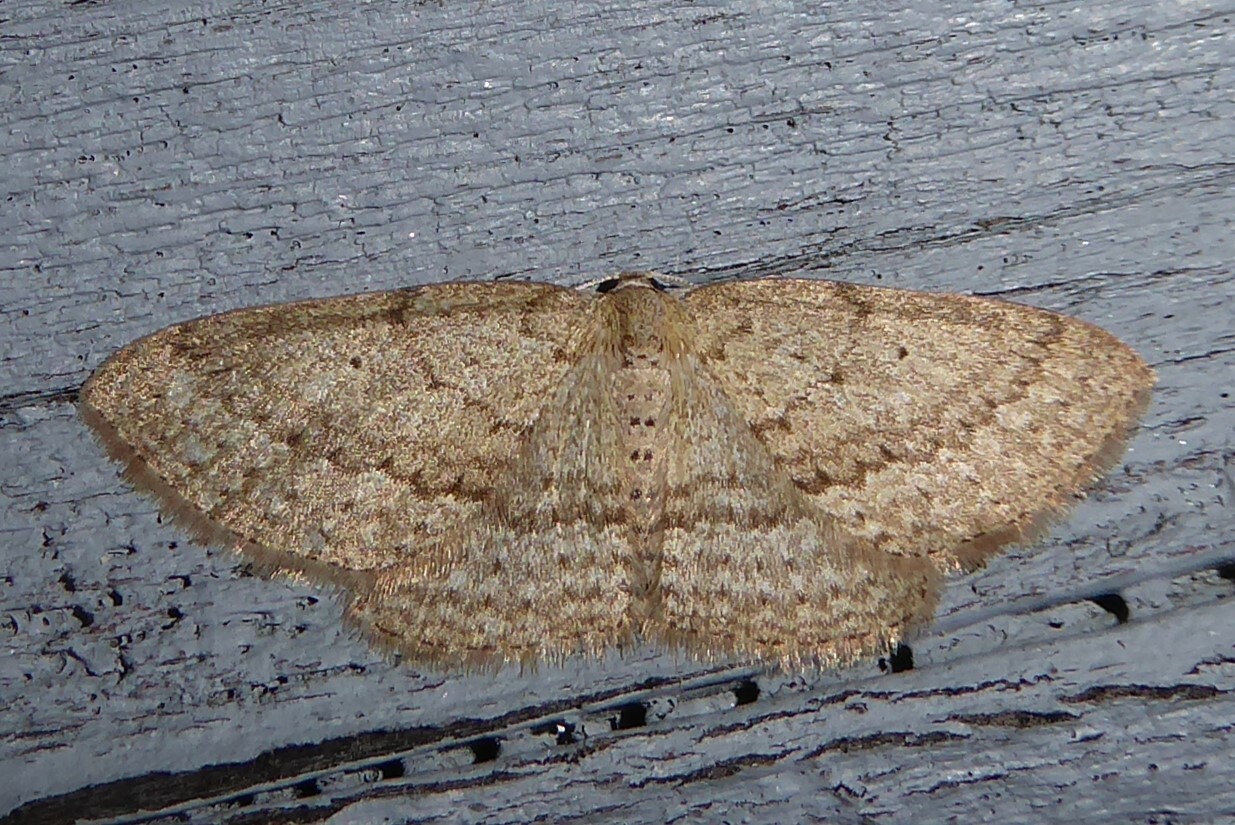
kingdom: Animalia
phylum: Arthropoda
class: Insecta
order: Lepidoptera
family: Geometridae
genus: Poecilasthena
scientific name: Poecilasthena schistaria
